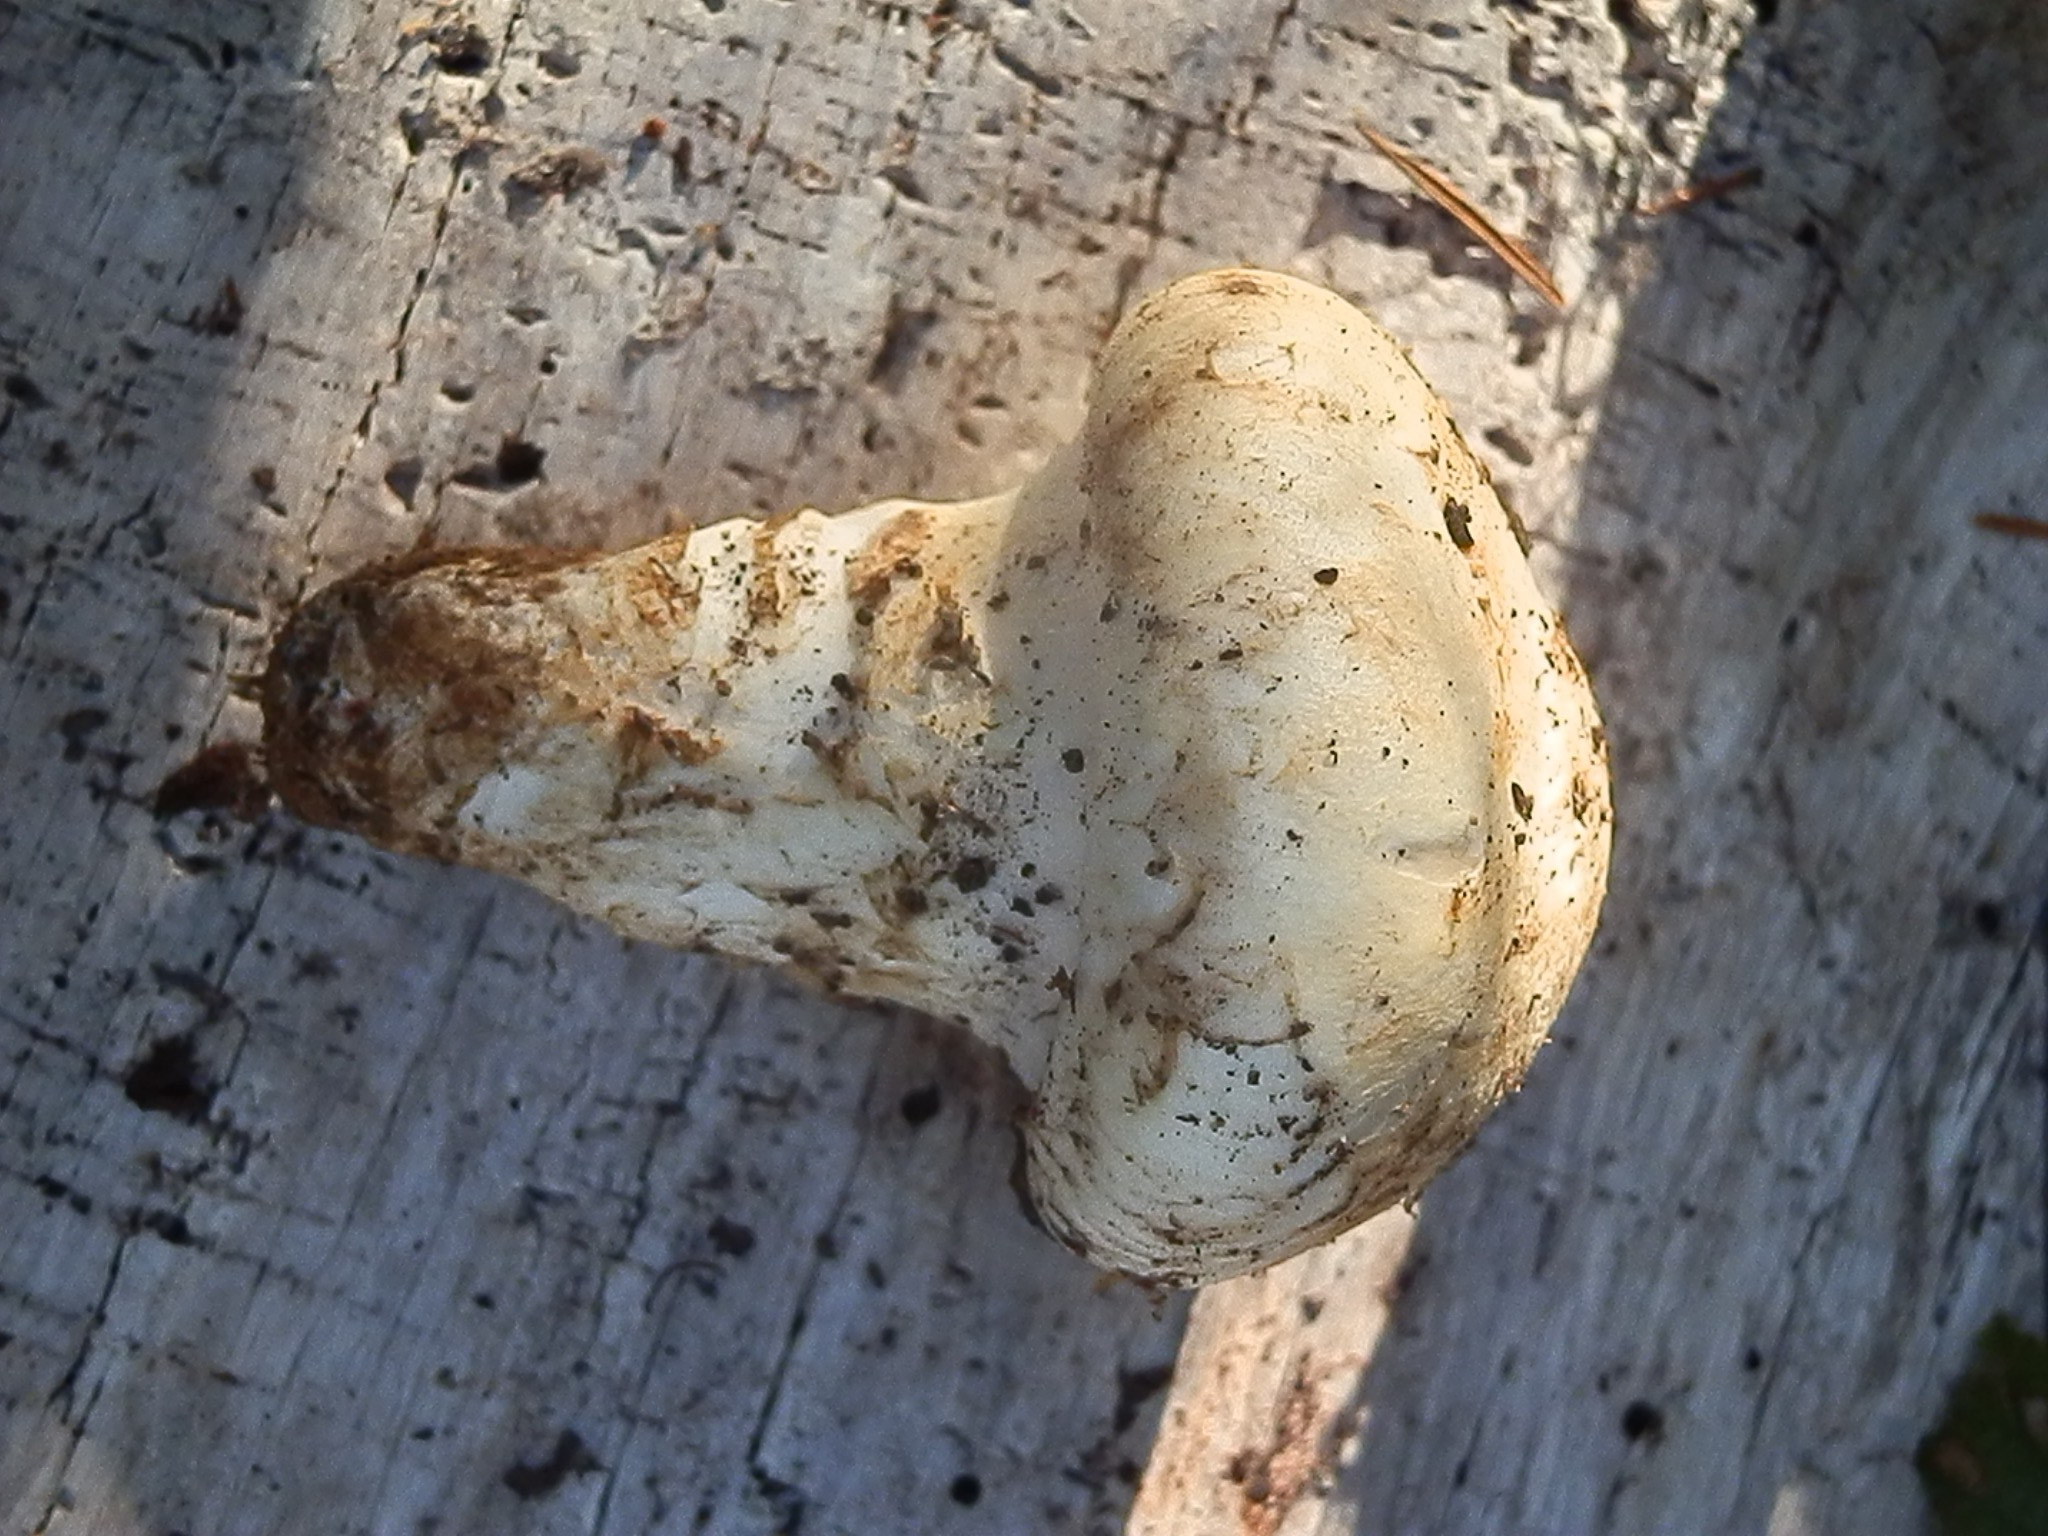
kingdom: Fungi
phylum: Basidiomycota
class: Agaricomycetes
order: Agaricales
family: Tricholomataceae
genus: Tricholoma
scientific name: Tricholoma murrillianum
